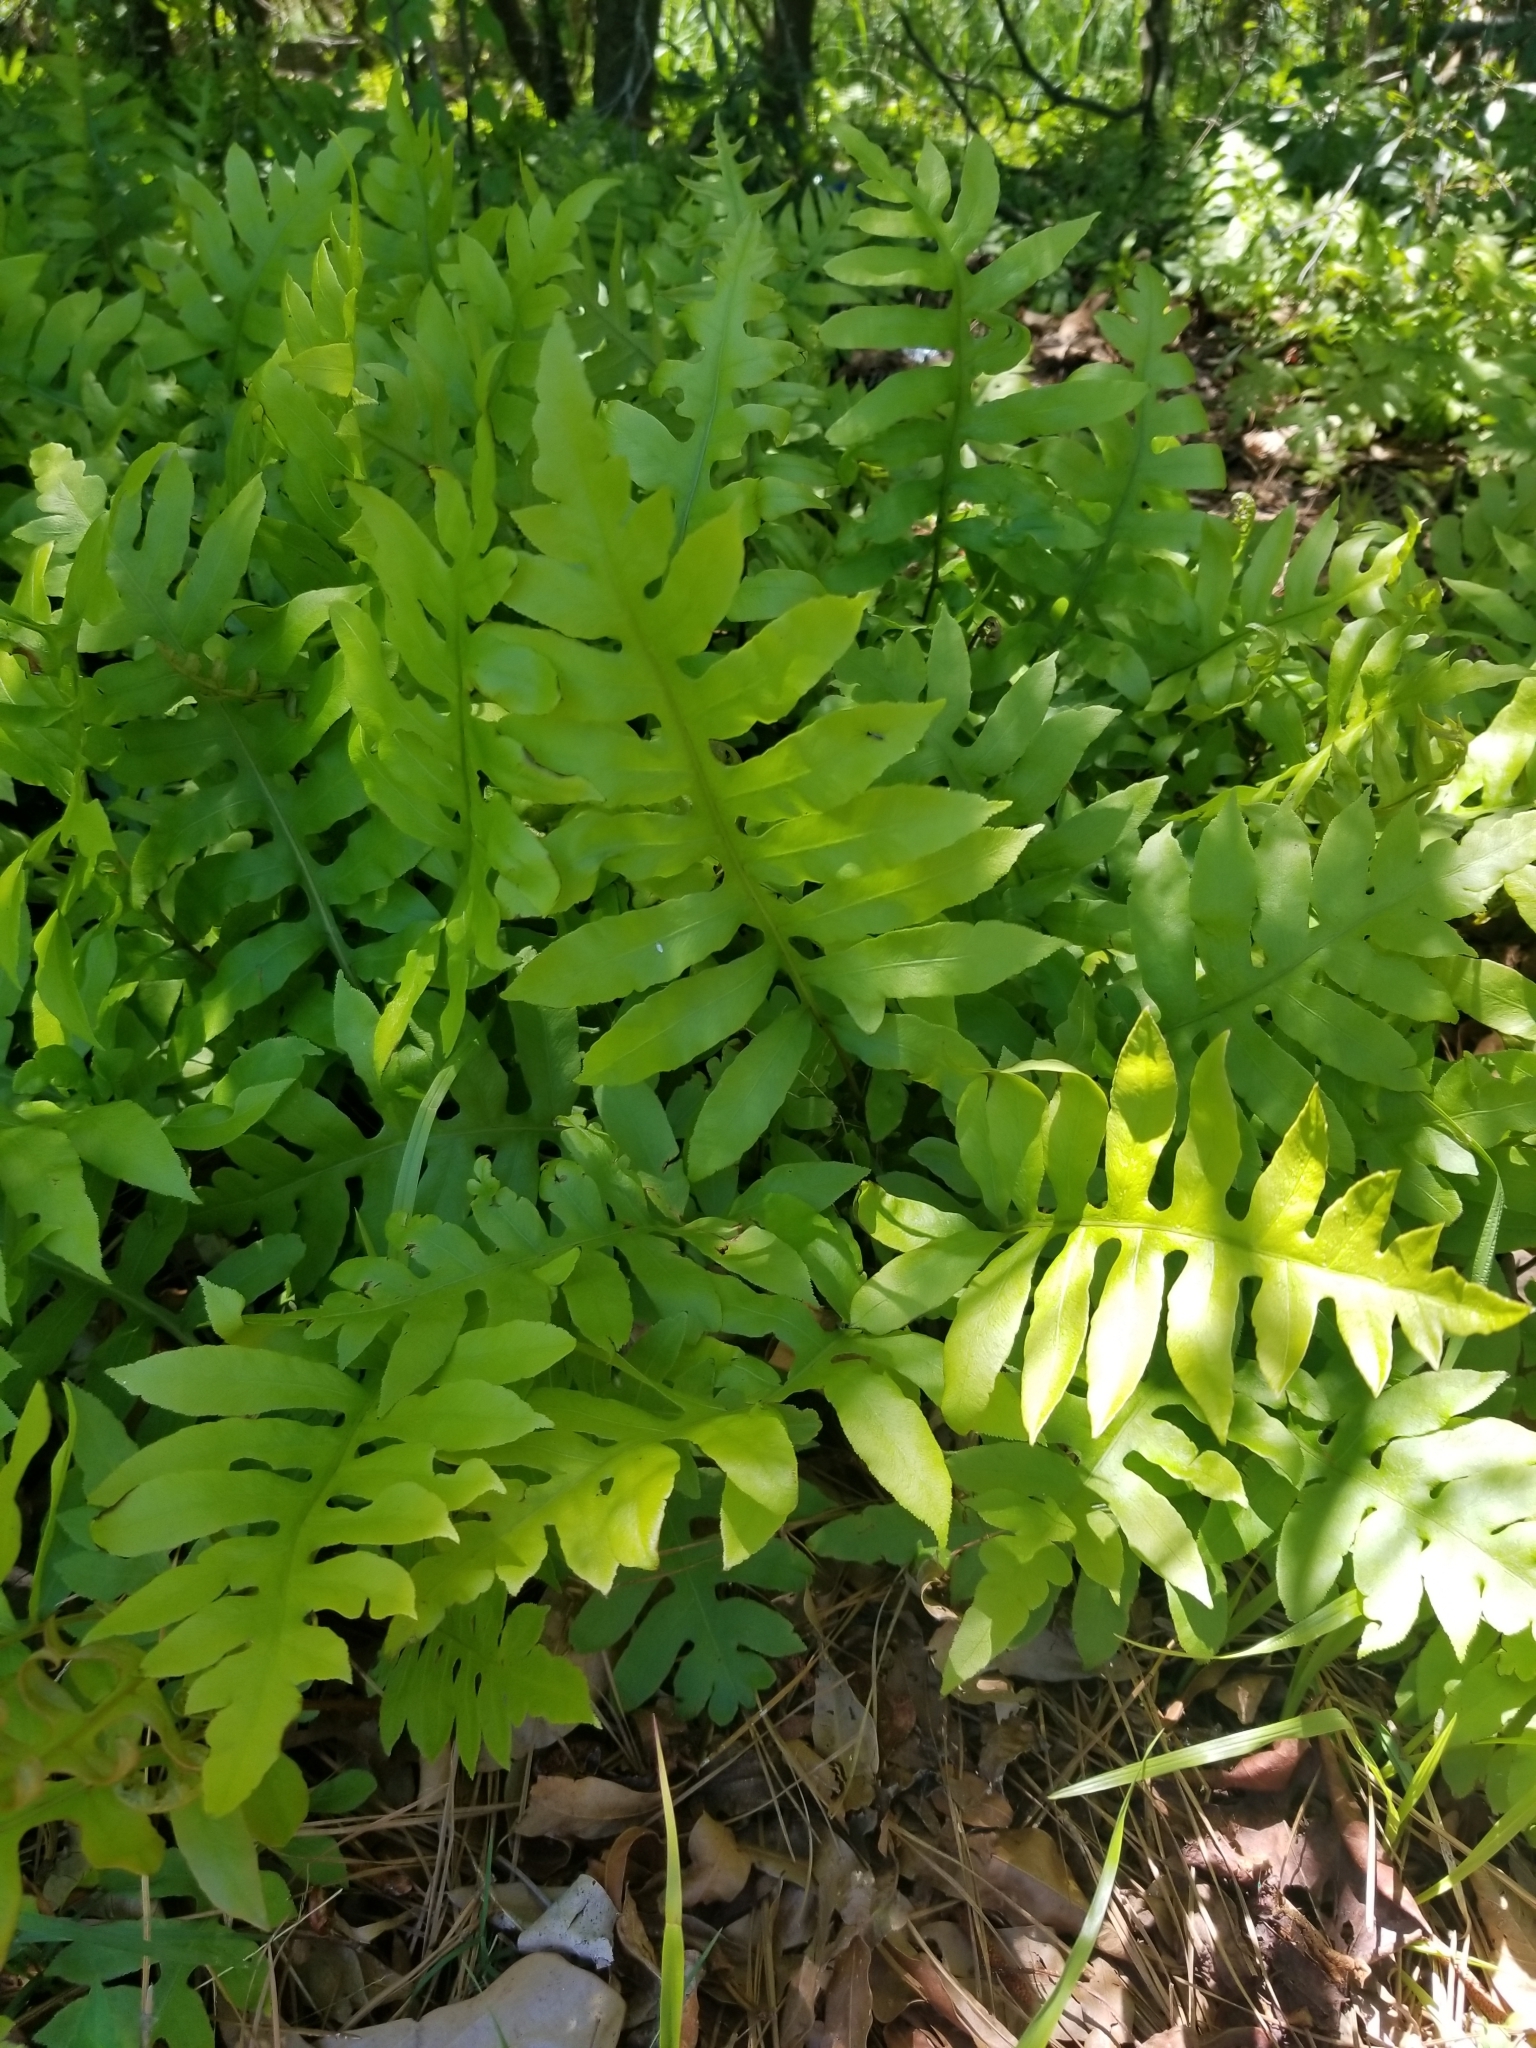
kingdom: Plantae
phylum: Tracheophyta
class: Polypodiopsida
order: Polypodiales
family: Blechnaceae
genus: Lorinseria
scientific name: Lorinseria areolata
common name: Dwarf chain fern
